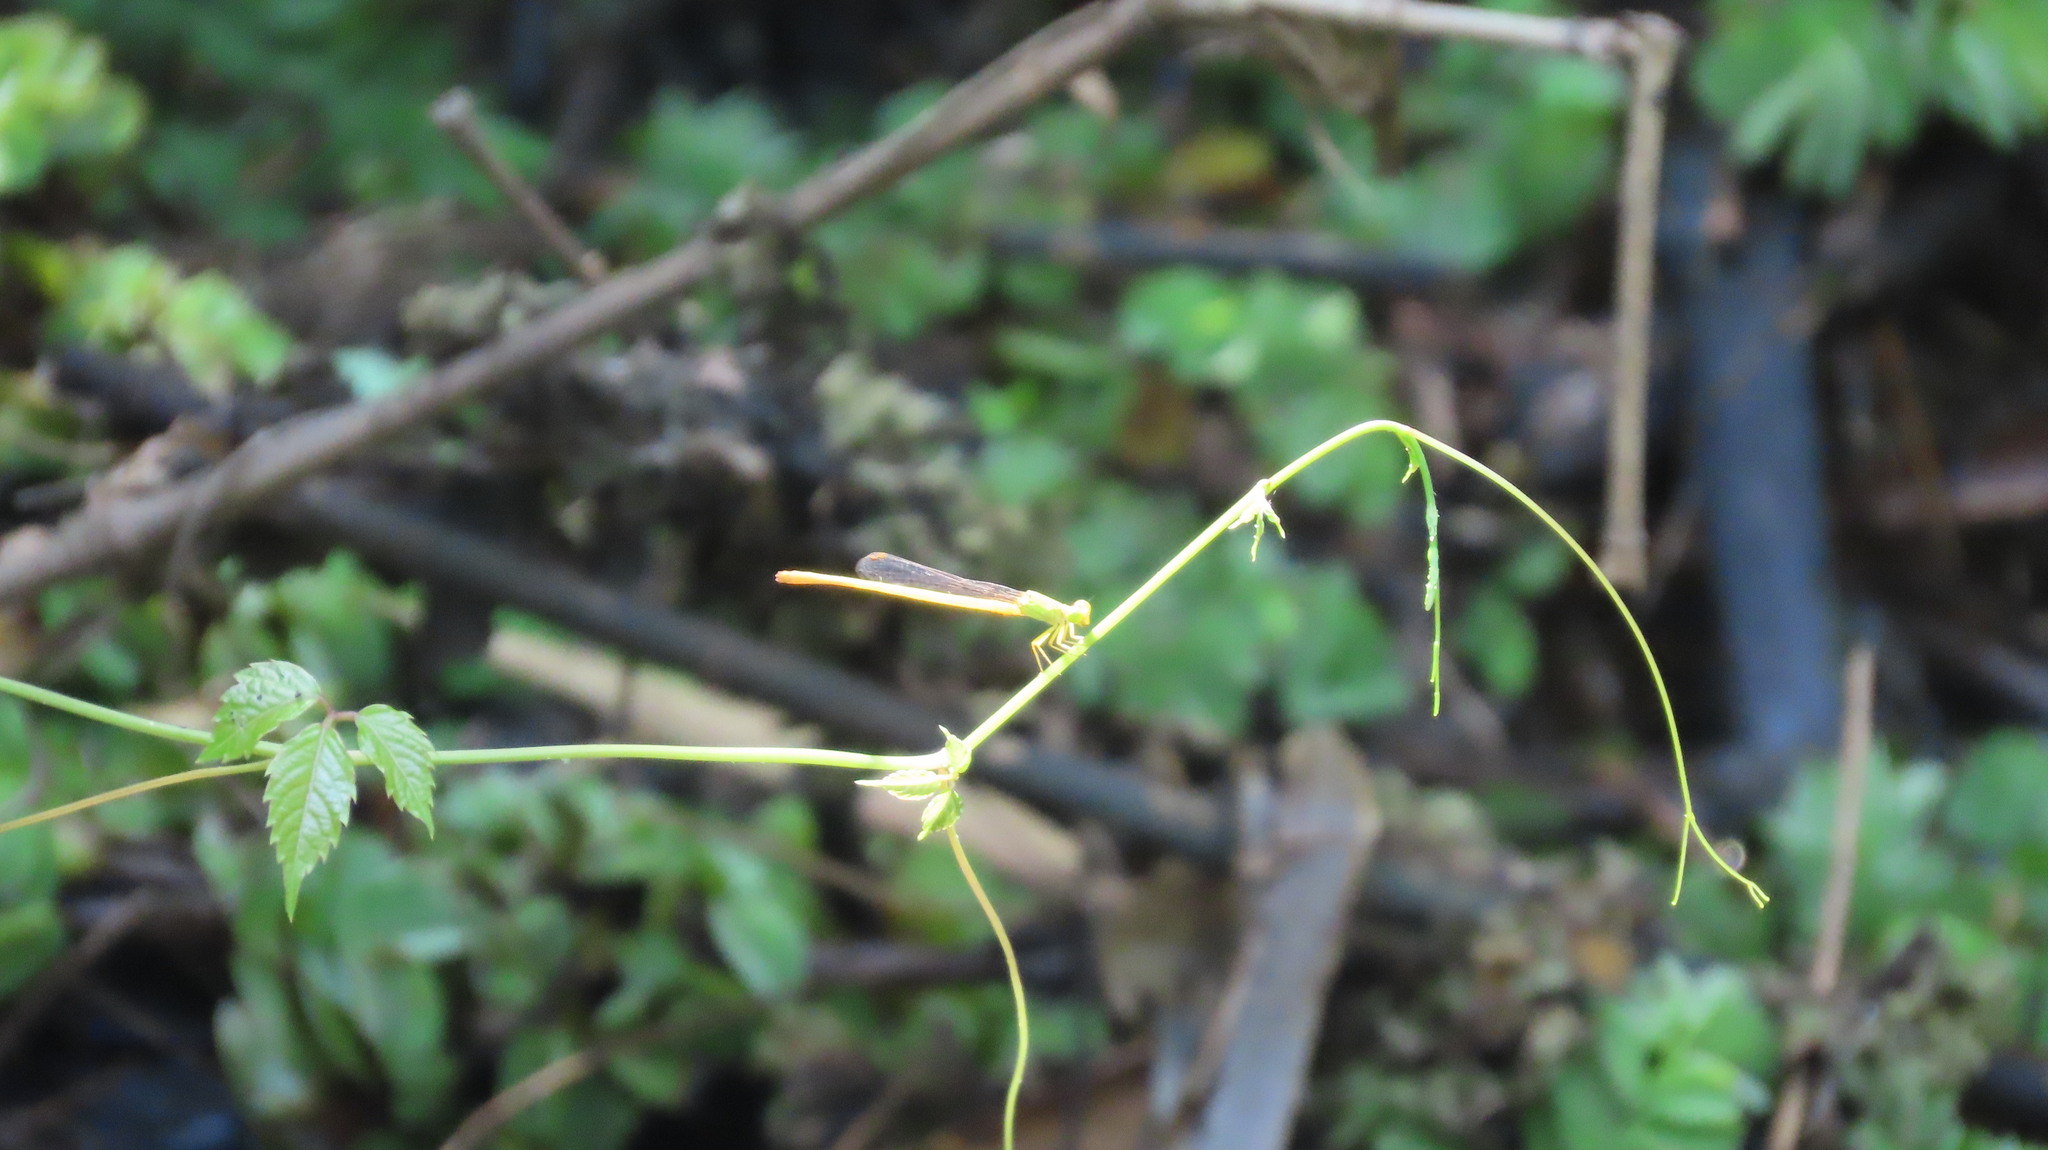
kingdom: Animalia
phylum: Arthropoda
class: Insecta
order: Odonata
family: Coenagrionidae
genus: Ceriagrion
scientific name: Ceriagrion coromandelianum
